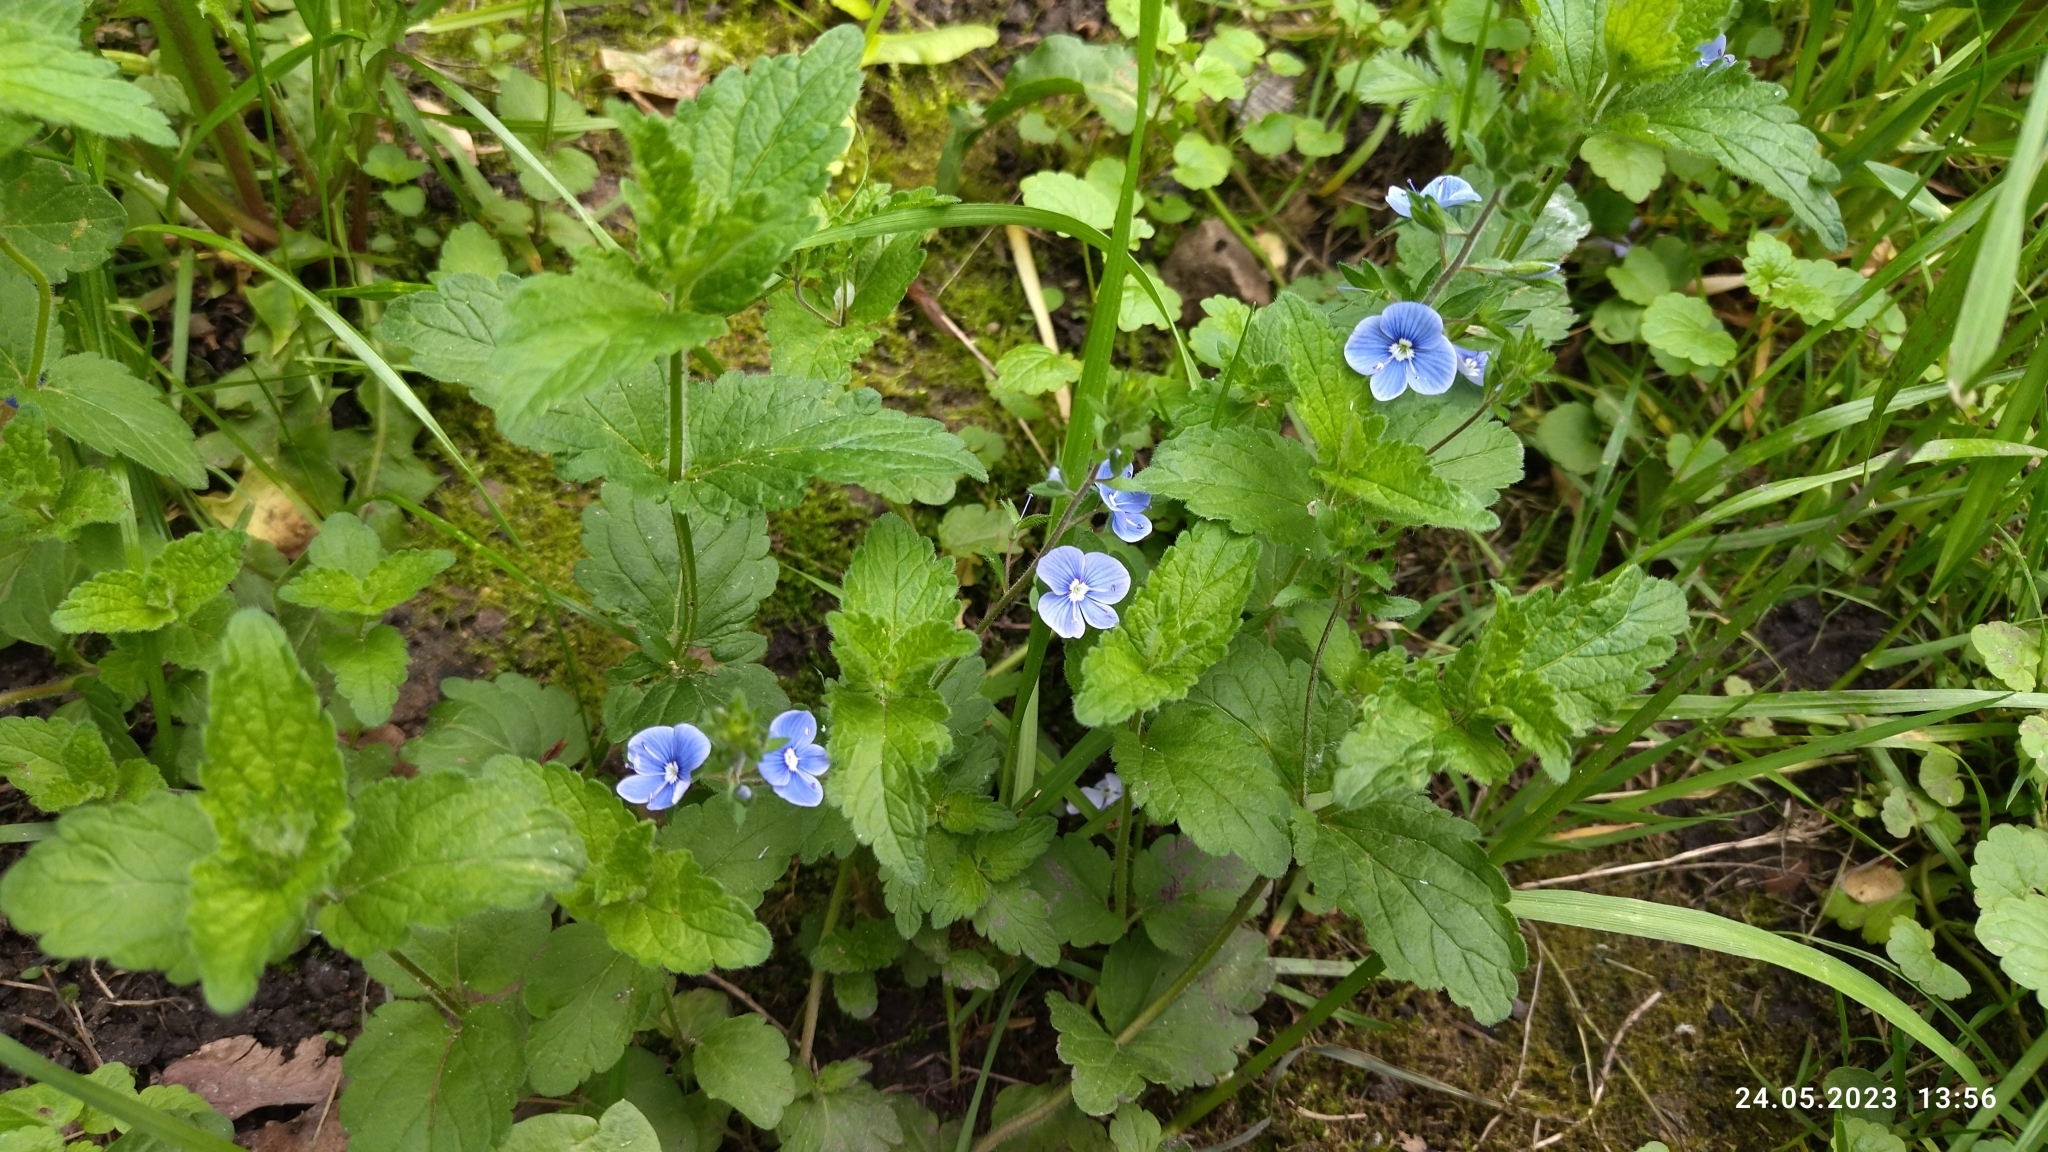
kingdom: Plantae
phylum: Tracheophyta
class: Magnoliopsida
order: Lamiales
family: Plantaginaceae
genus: Veronica
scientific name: Veronica chamaedrys
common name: Germander speedwell
